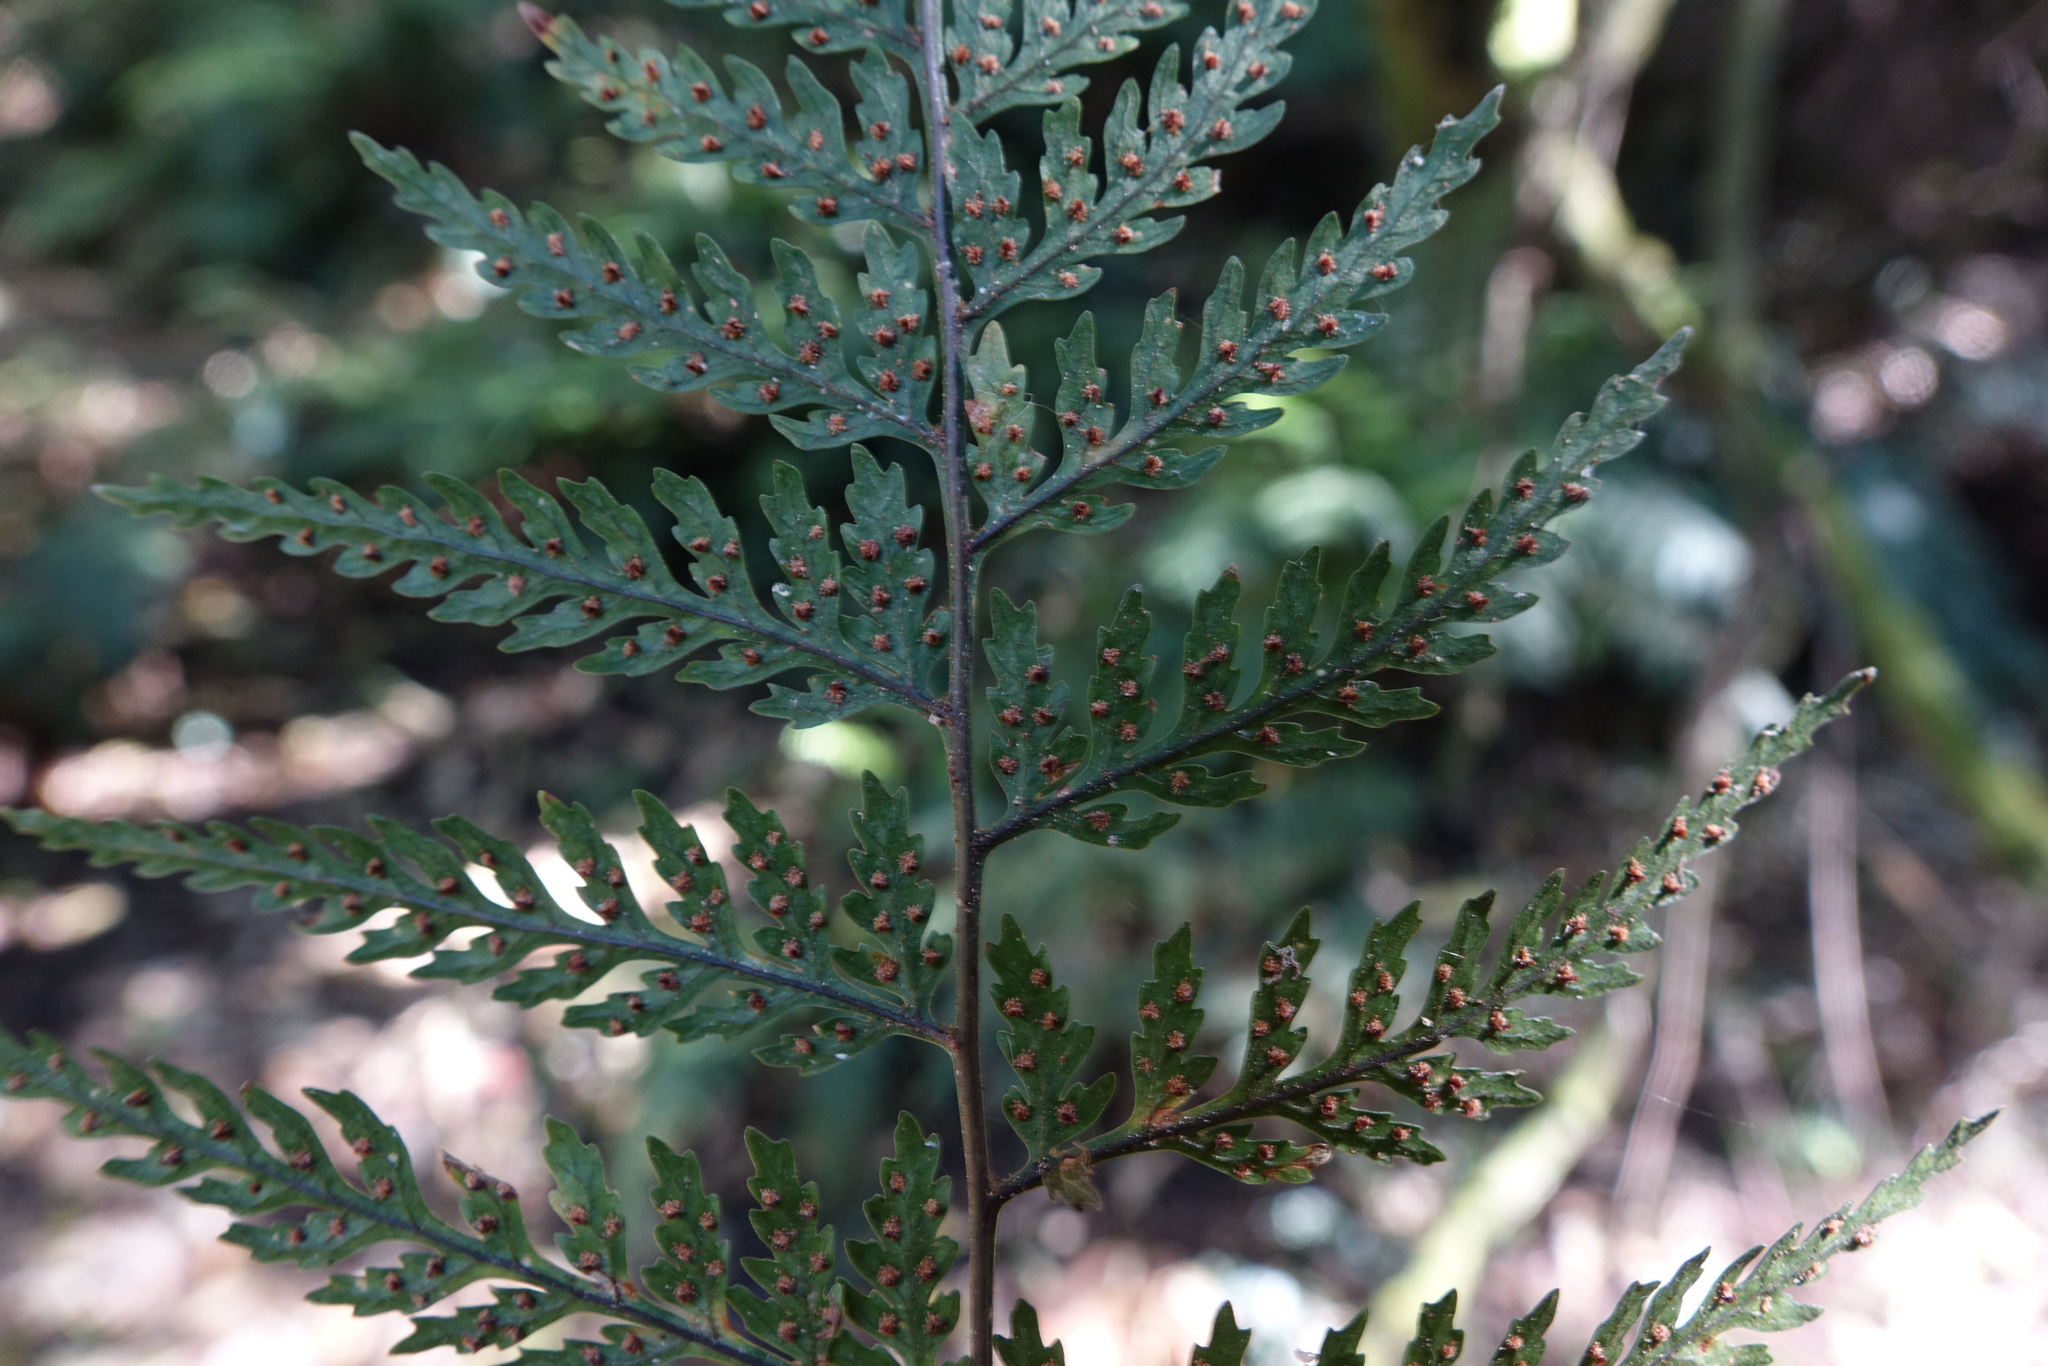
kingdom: Plantae
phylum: Tracheophyta
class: Polypodiopsida
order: Polypodiales
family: Dryopteridaceae
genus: Parapolystichum
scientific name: Parapolystichum glabellum
